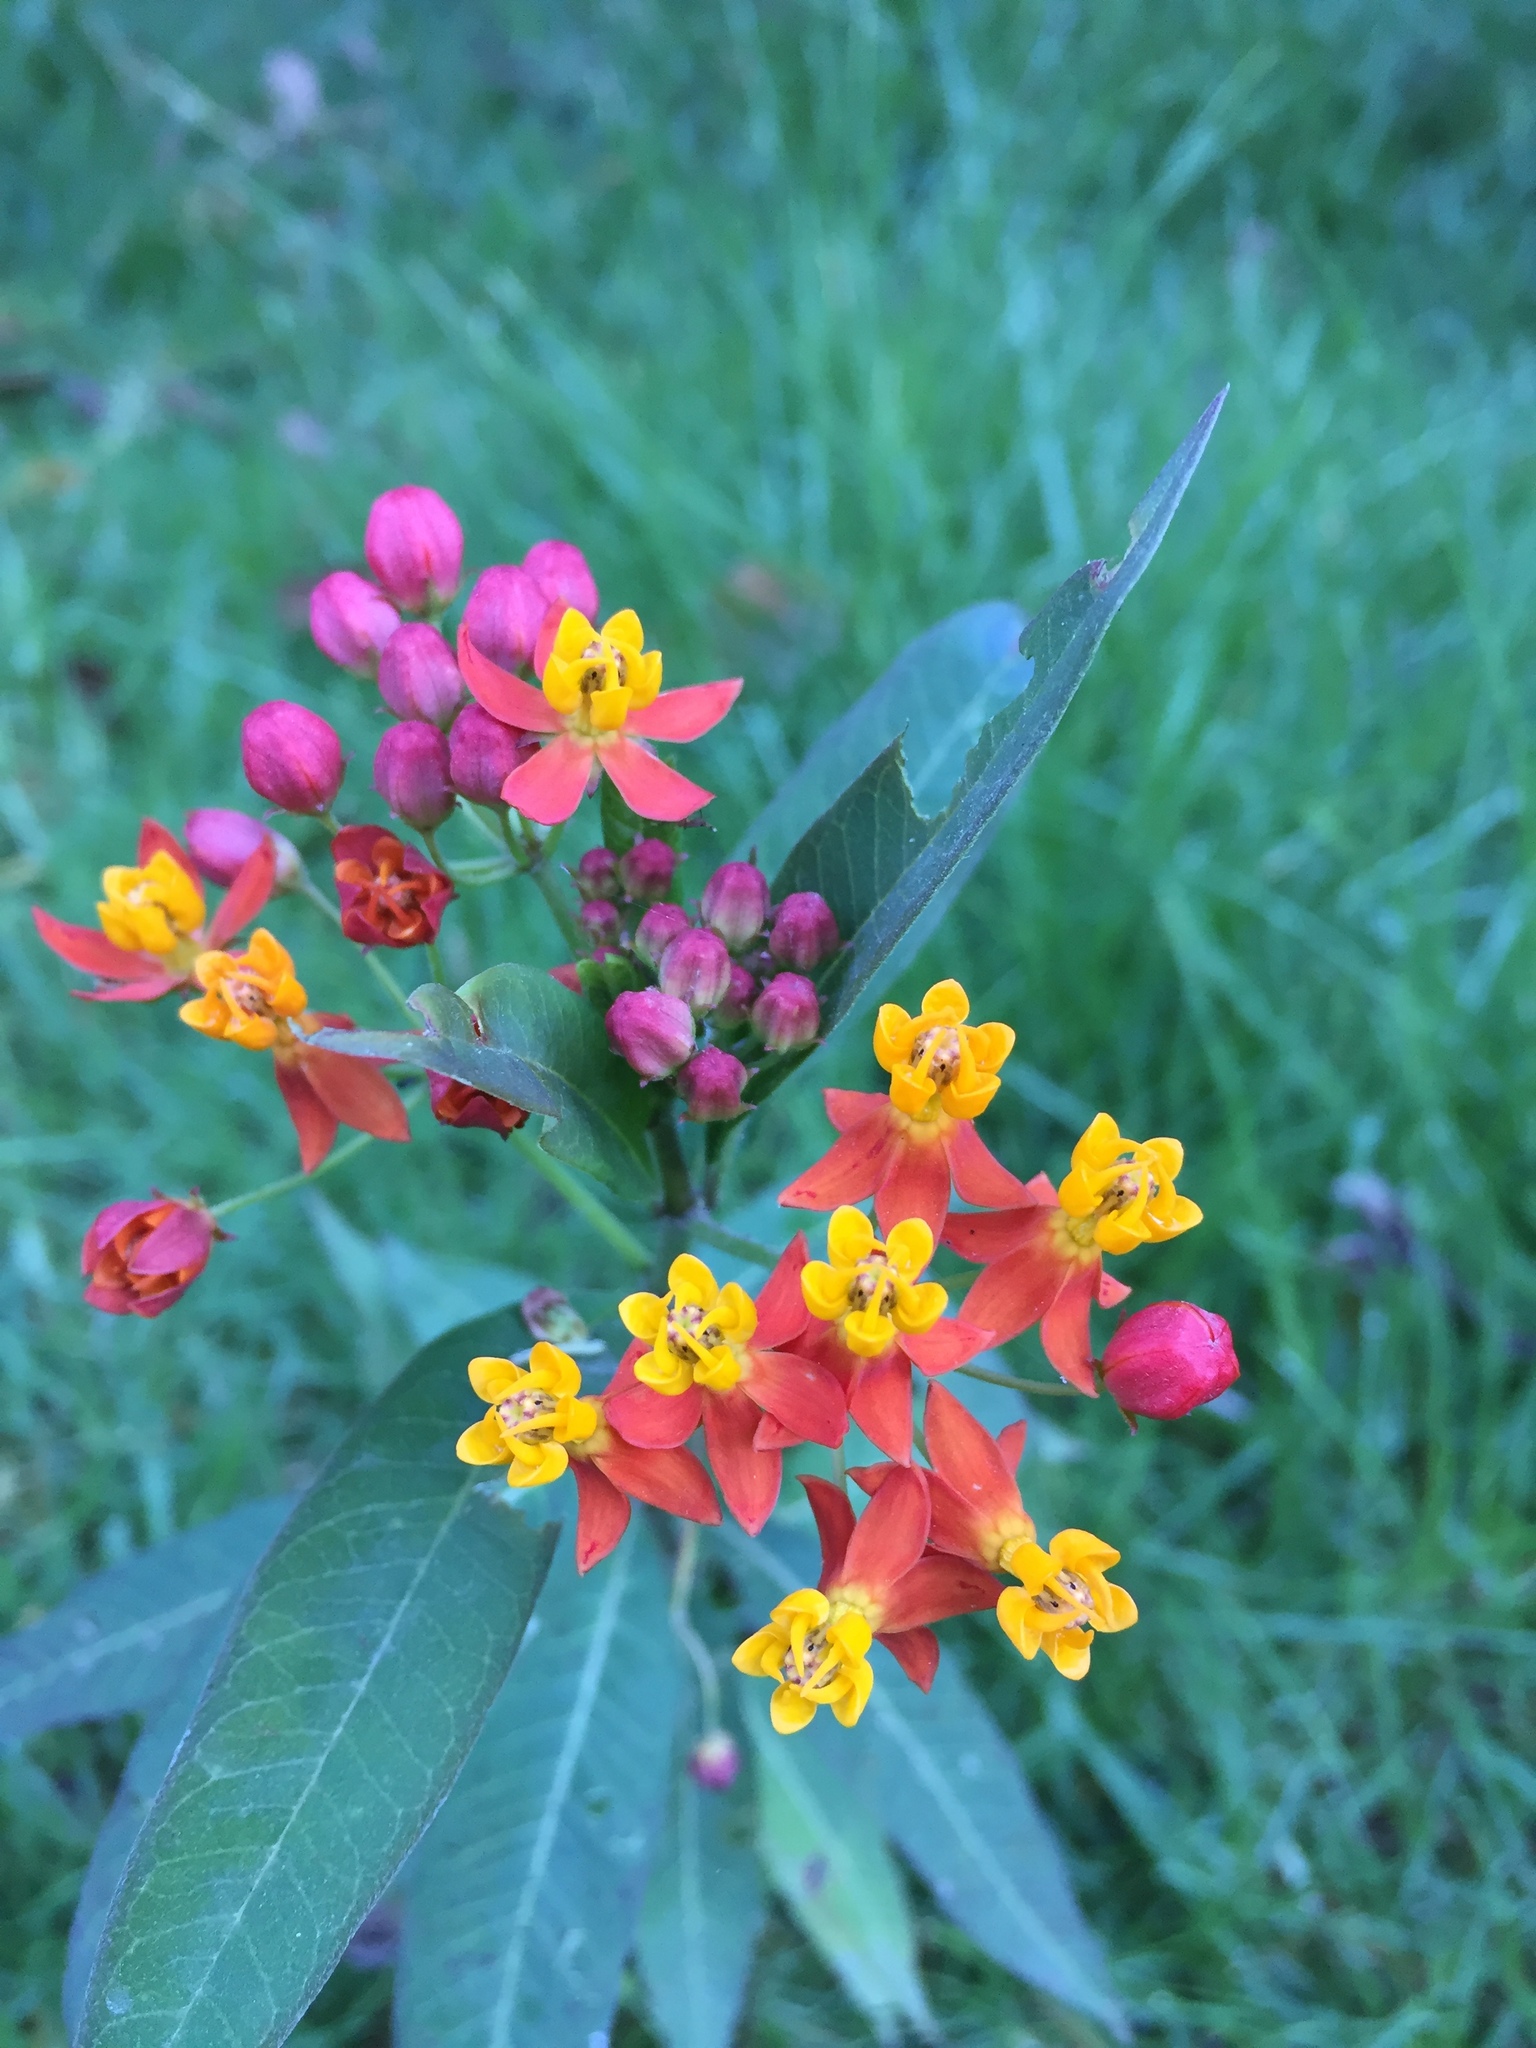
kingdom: Plantae
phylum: Tracheophyta
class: Magnoliopsida
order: Gentianales
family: Apocynaceae
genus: Asclepias
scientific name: Asclepias curassavica
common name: Bloodflower
